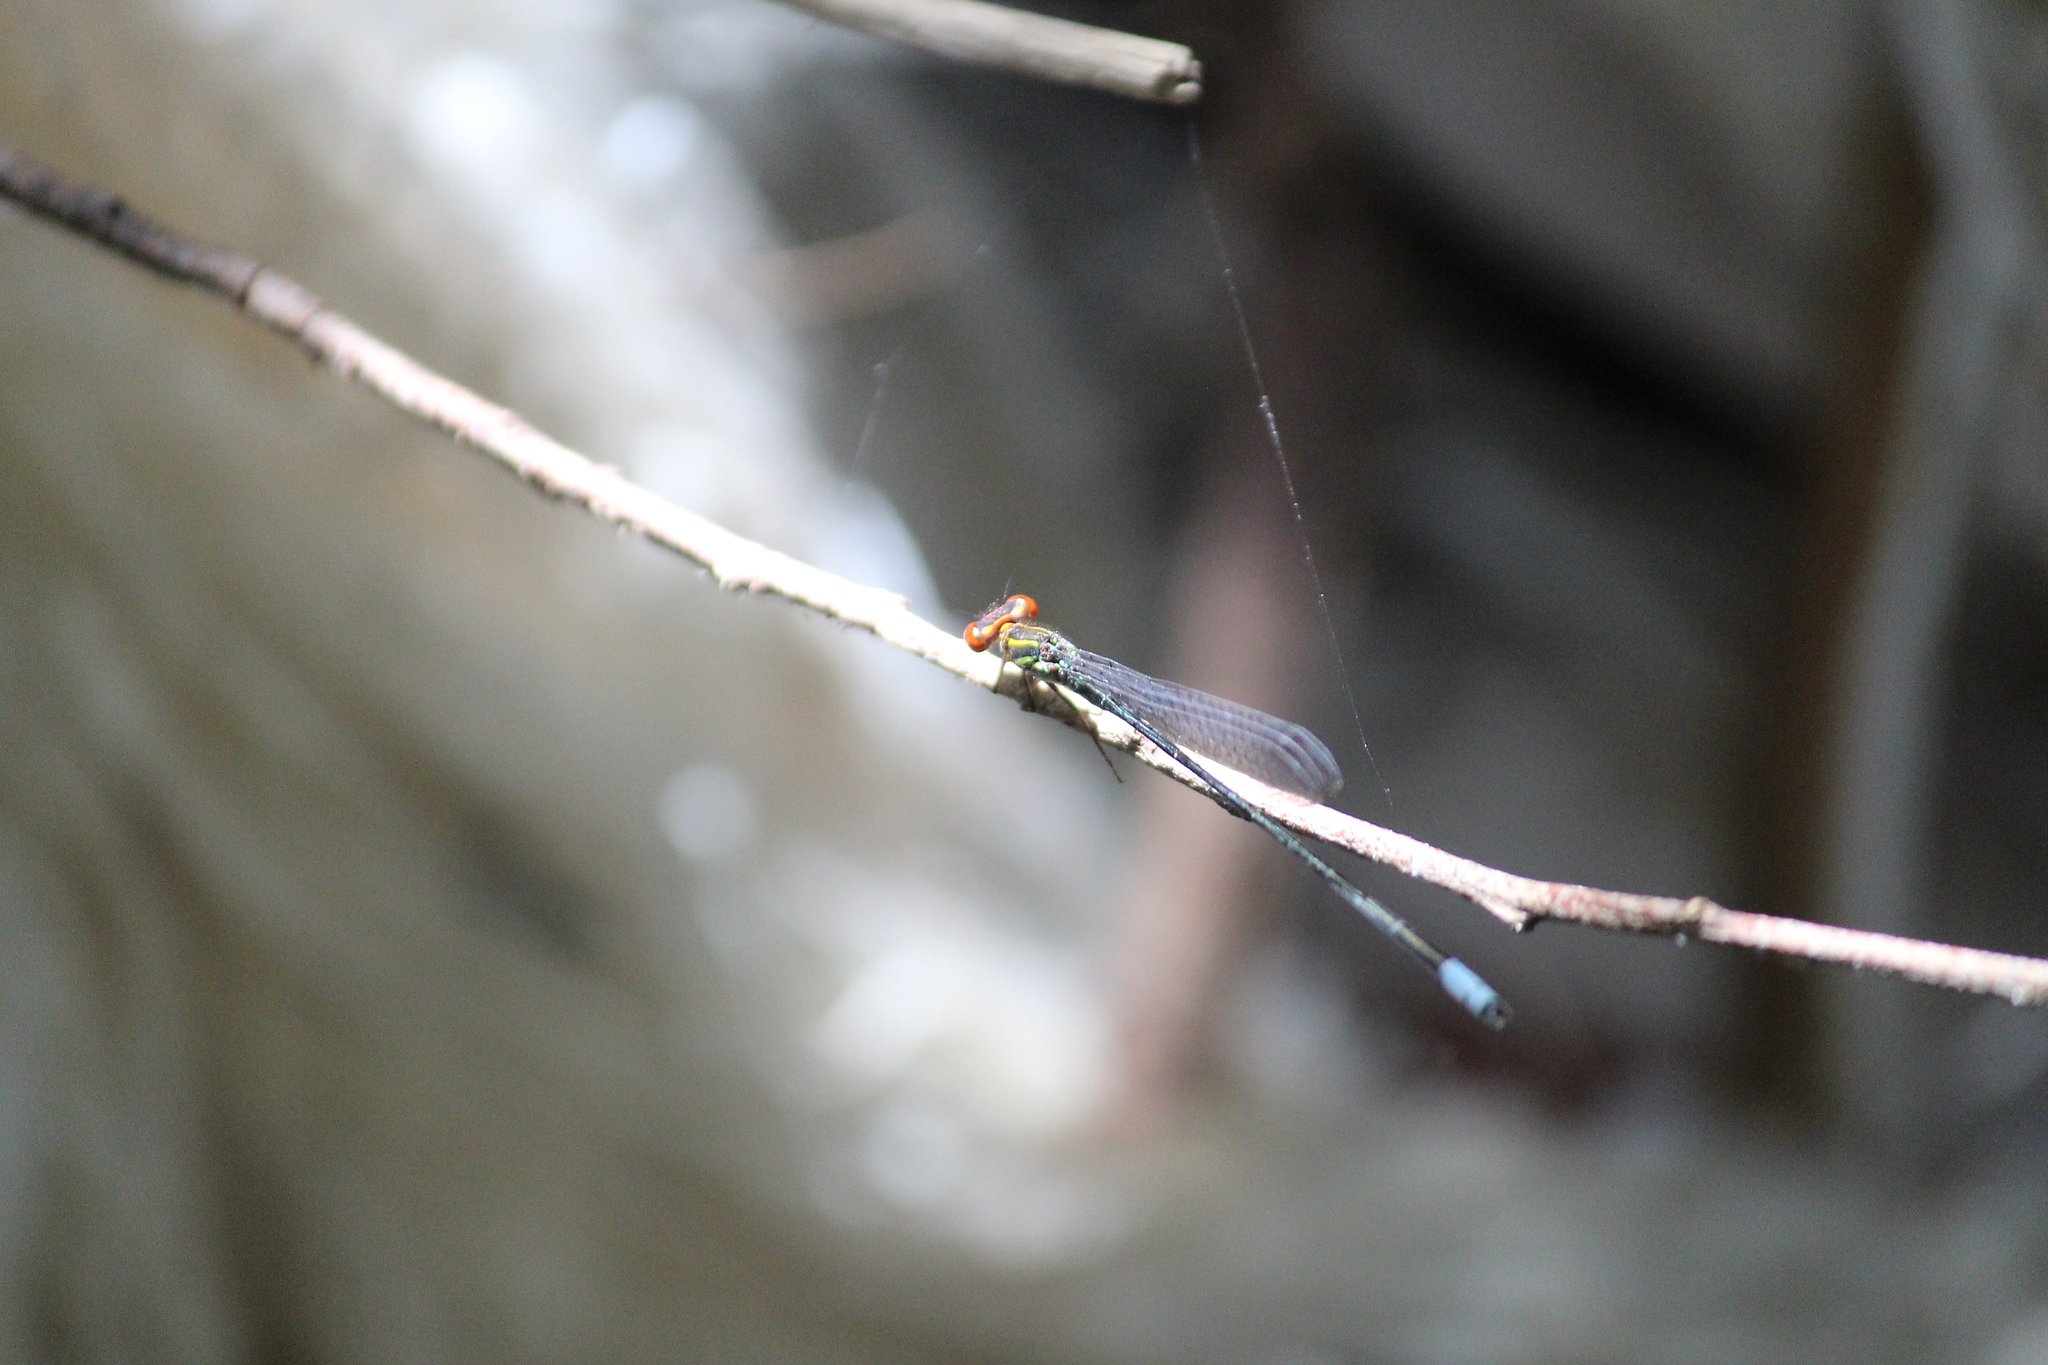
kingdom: Animalia
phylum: Arthropoda
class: Insecta
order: Odonata
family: Coenagrionidae
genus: Pseudagrion
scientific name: Pseudagrion hageni
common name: Painted sprite
